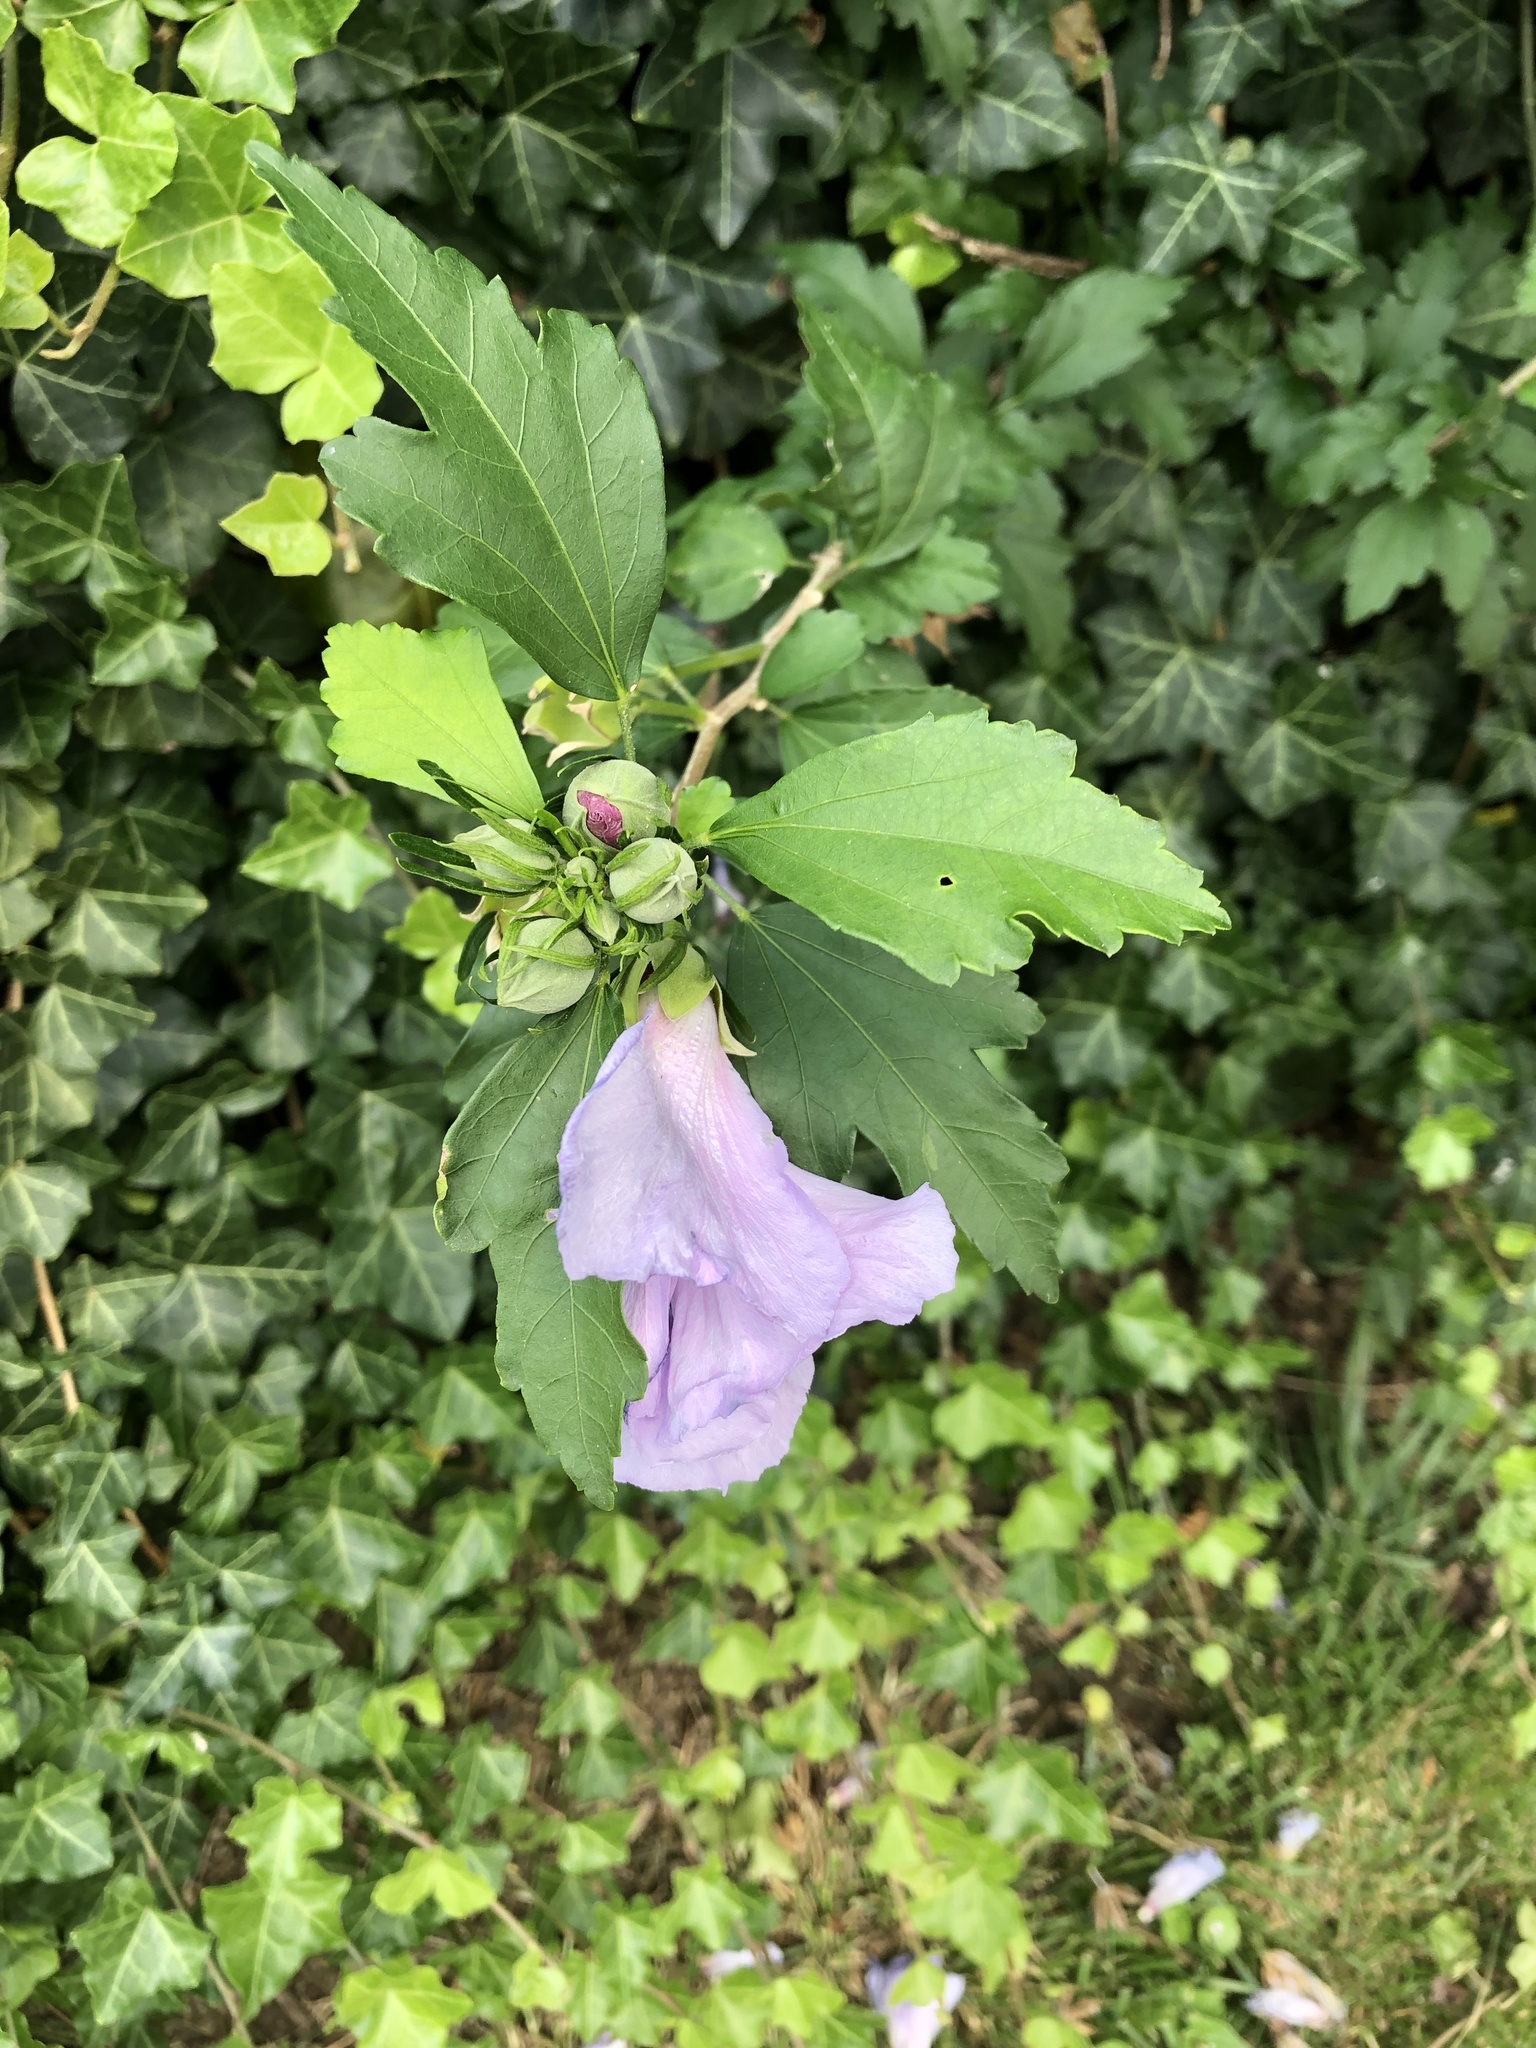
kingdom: Plantae
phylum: Tracheophyta
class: Magnoliopsida
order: Malvales
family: Malvaceae
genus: Hibiscus
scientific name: Hibiscus syriacus
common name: Syrian ketmia
